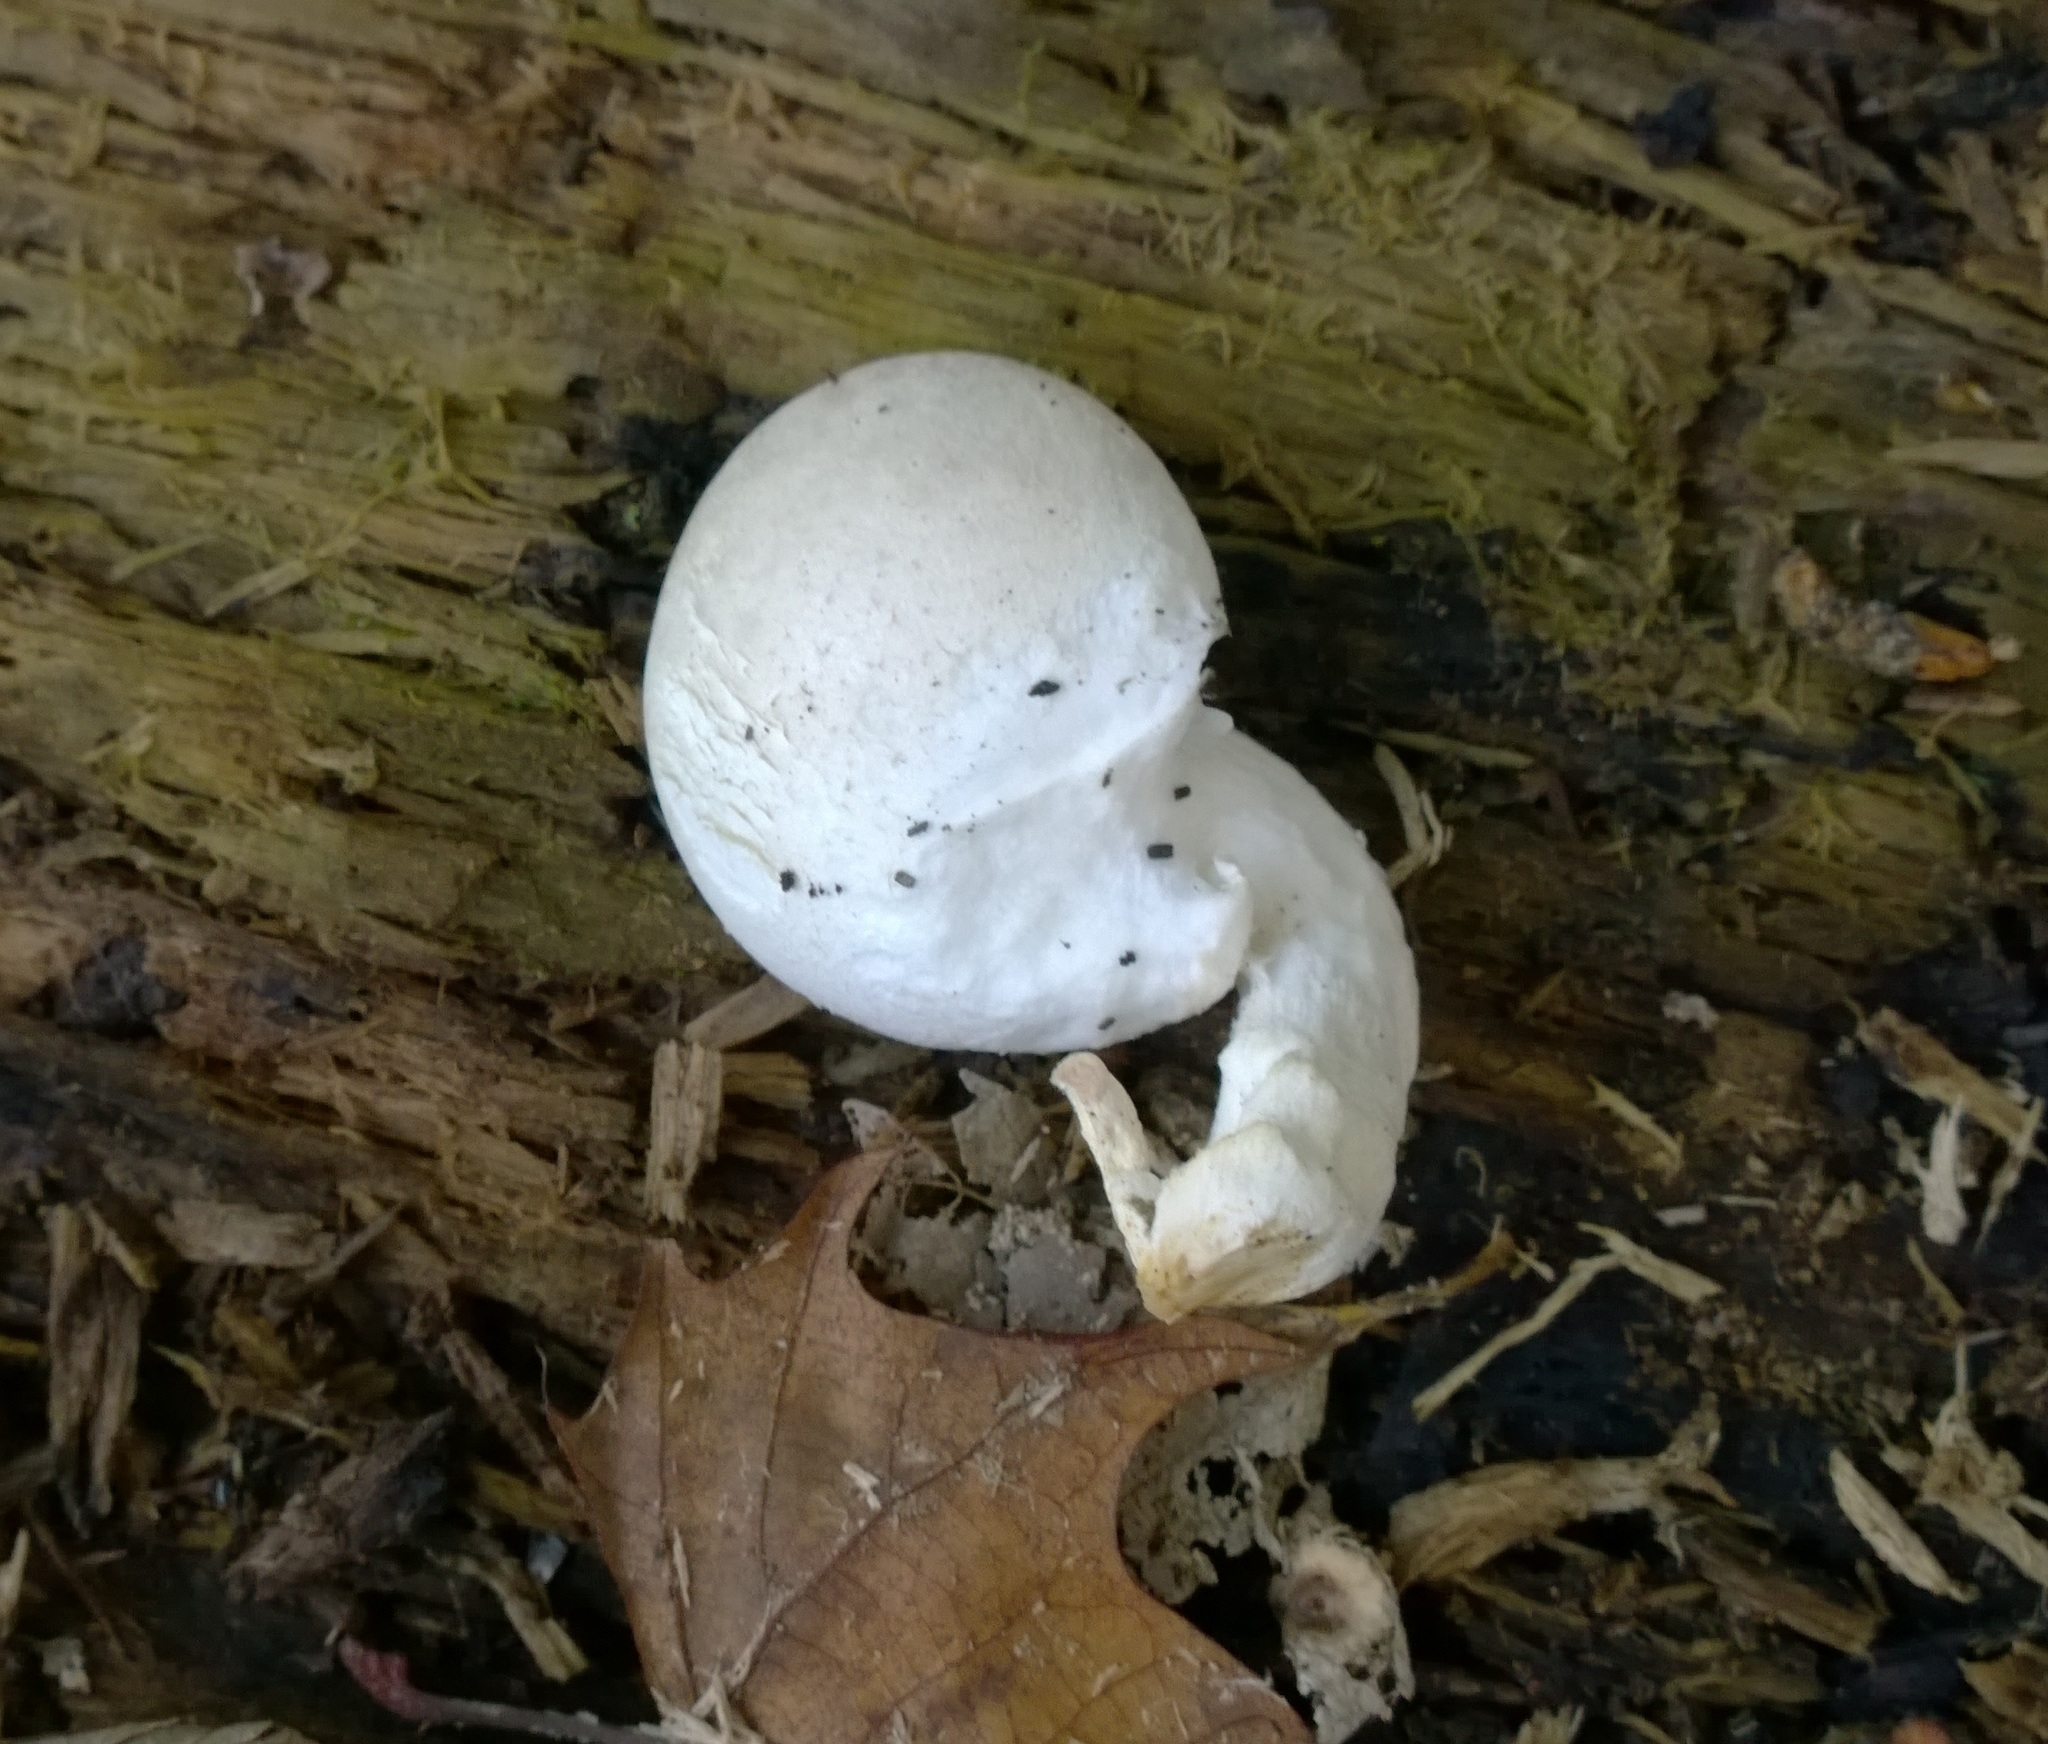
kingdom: Fungi
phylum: Basidiomycota
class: Agaricomycetes
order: Agaricales
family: Pleurotaceae
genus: Pleurotus
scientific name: Pleurotus dryinus
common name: Veiled oyster
